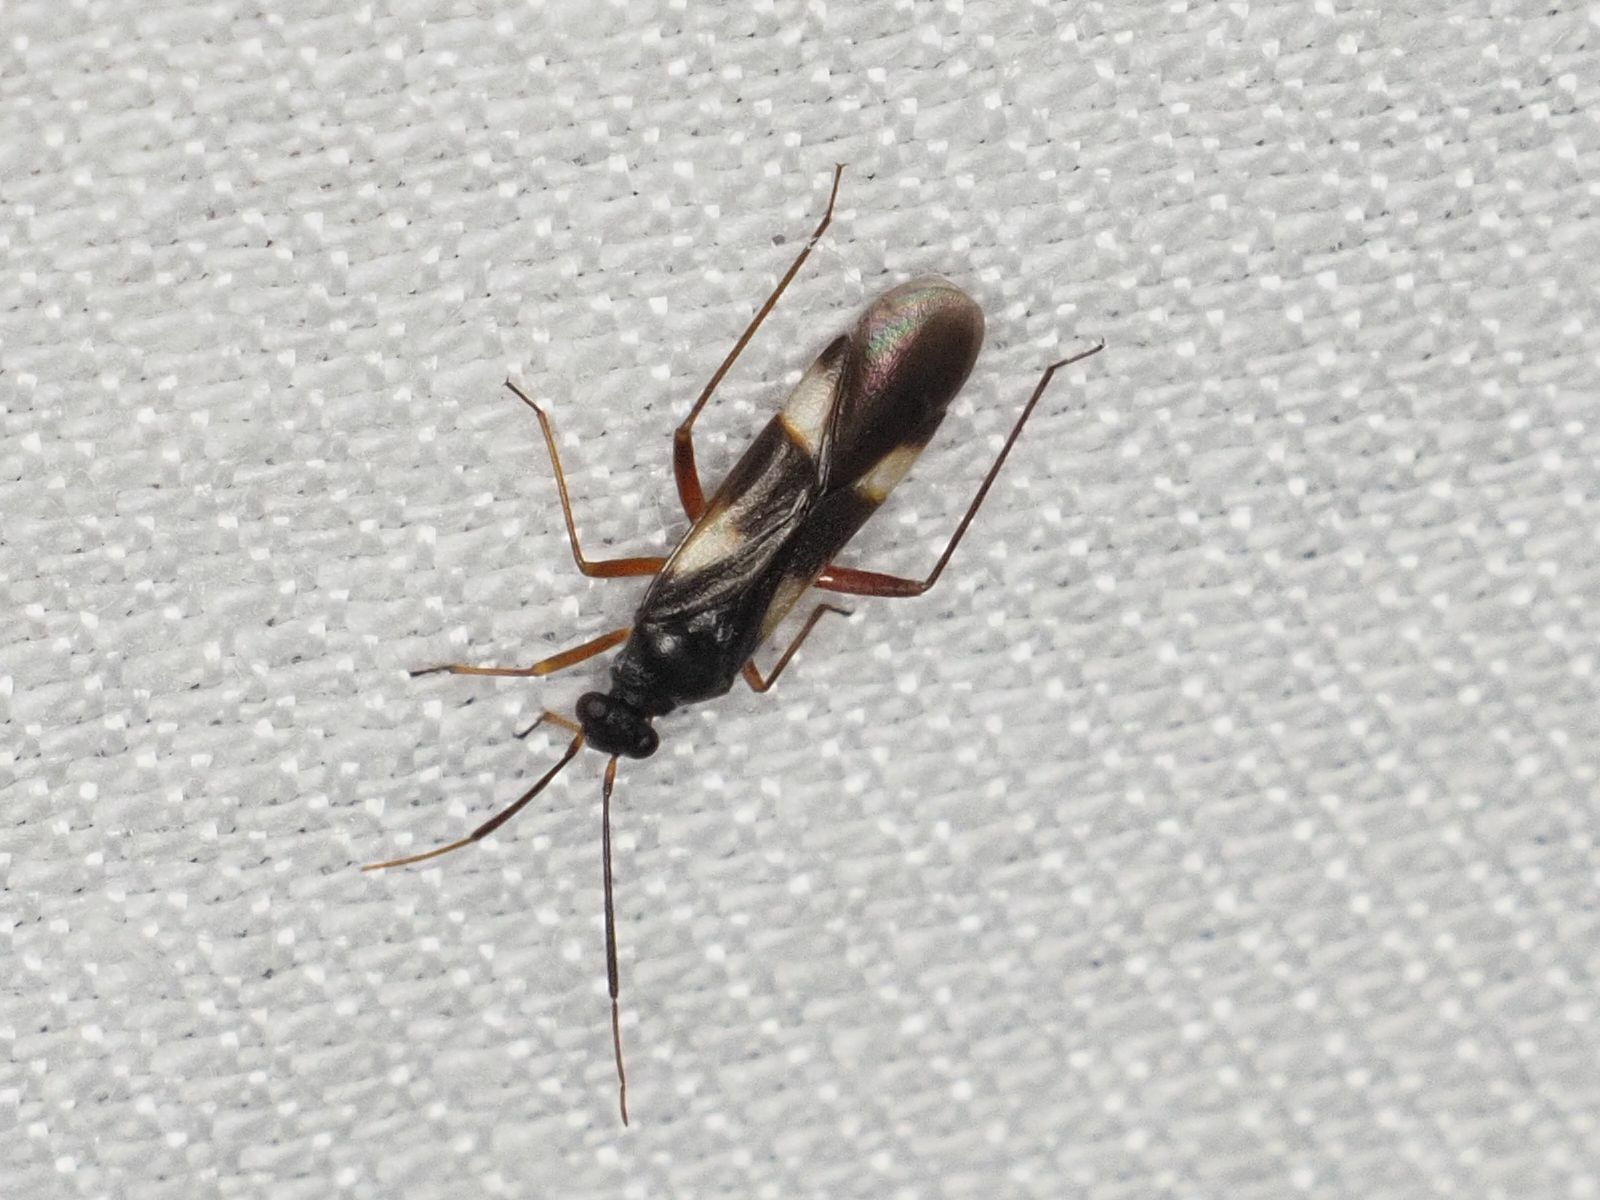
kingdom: Animalia
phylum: Arthropoda
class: Insecta
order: Hemiptera
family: Miridae
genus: Dryophilocoris
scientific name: Dryophilocoris flavoquadrimaculatus
